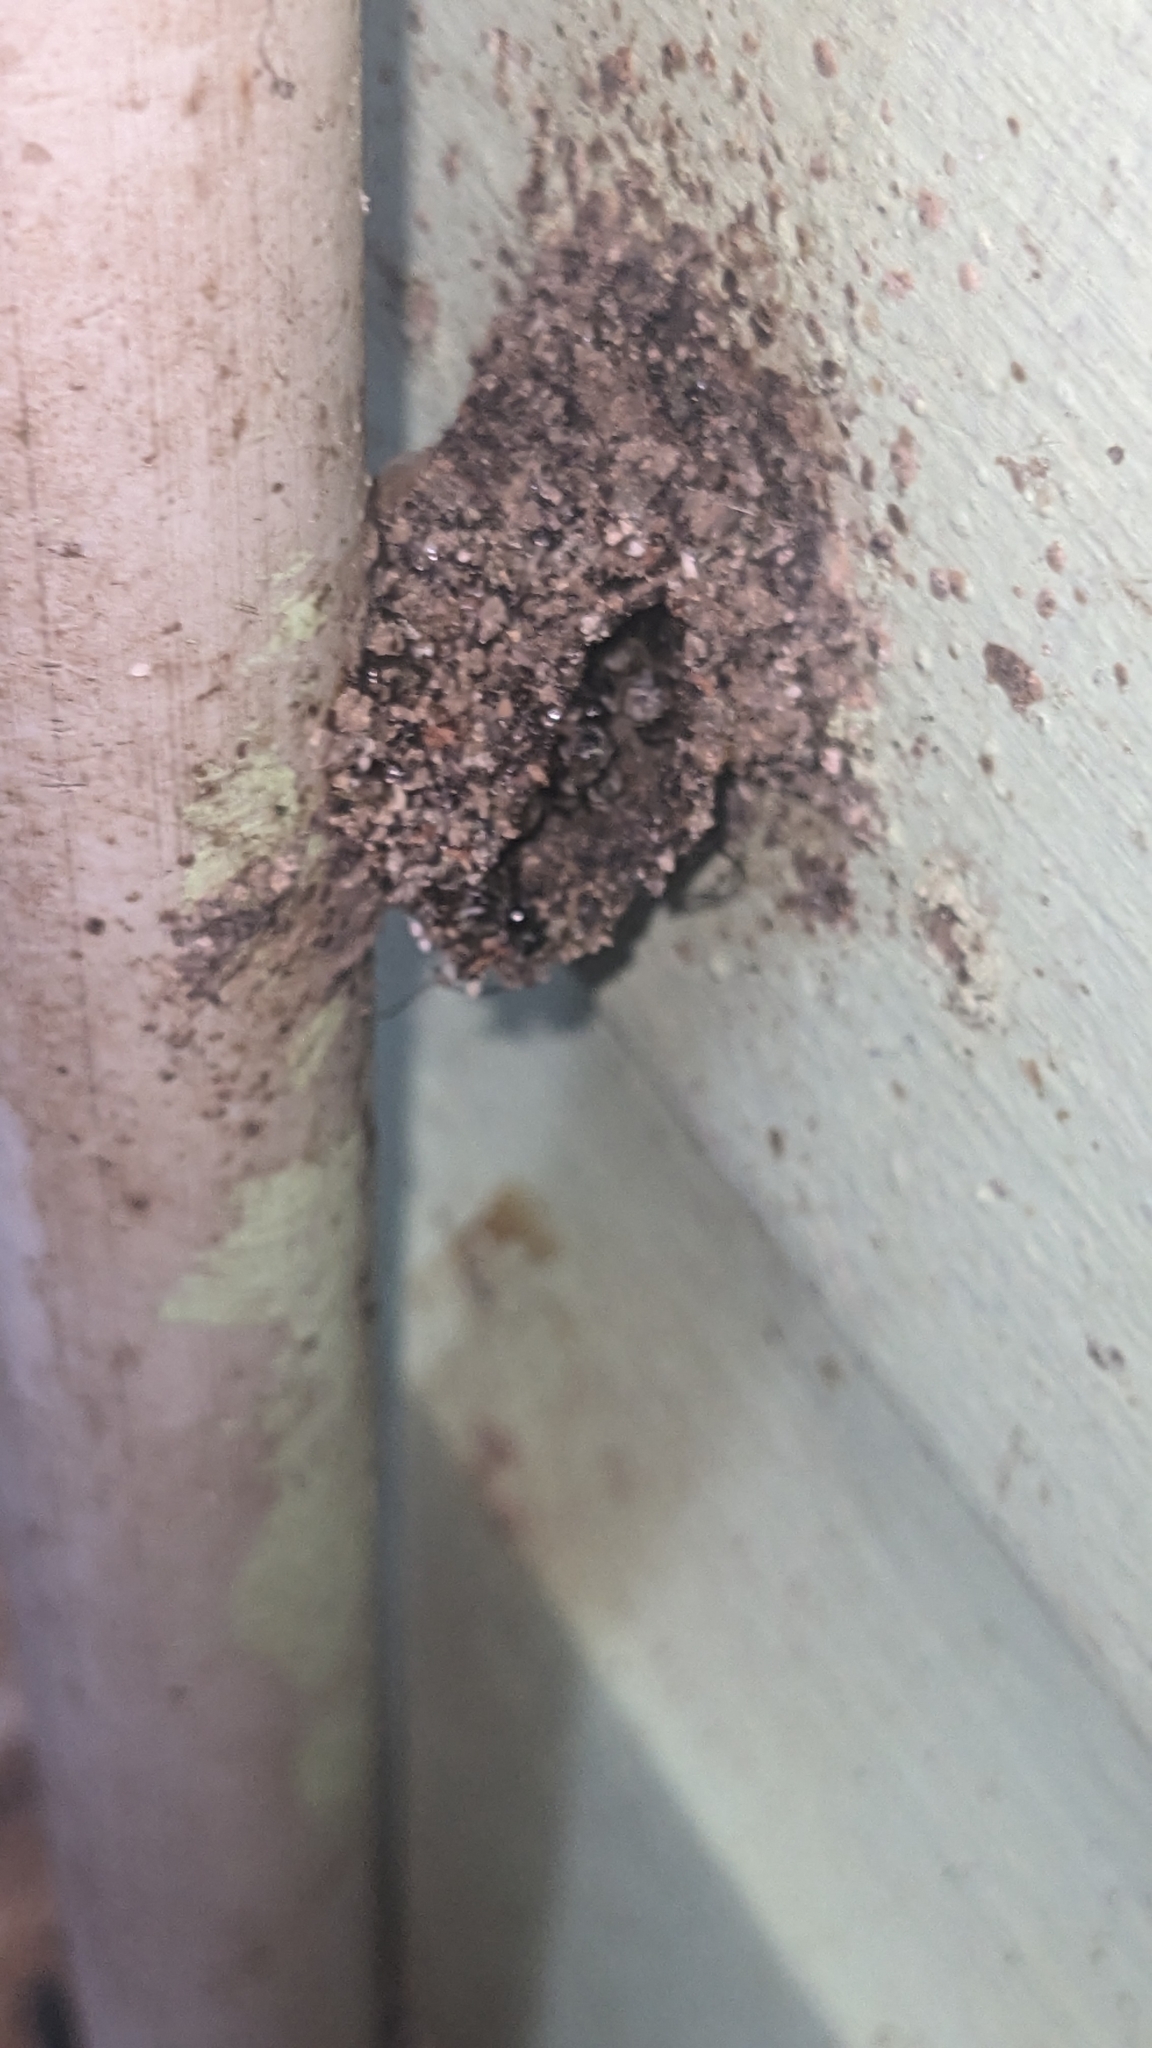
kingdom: Animalia
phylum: Arthropoda
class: Insecta
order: Hymenoptera
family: Apidae
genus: Apidae
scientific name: Apidae
